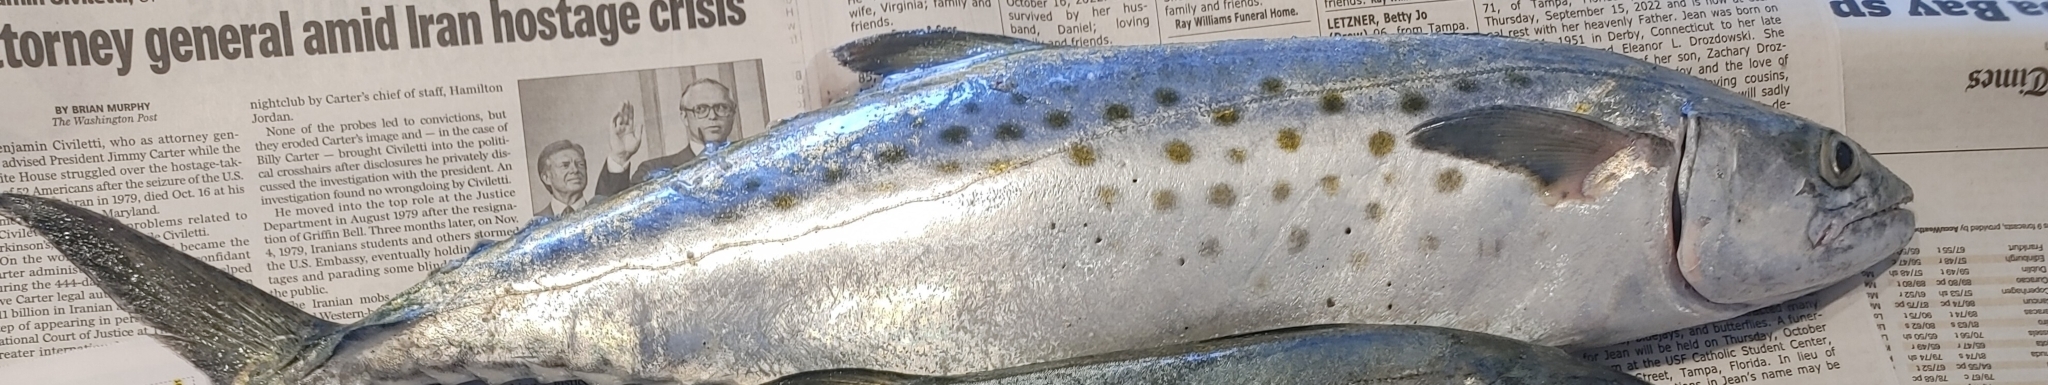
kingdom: Animalia
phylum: Chordata
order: Perciformes
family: Scombridae
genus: Scomberomorus
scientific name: Scomberomorus maculatus
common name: Spanish mackerel
